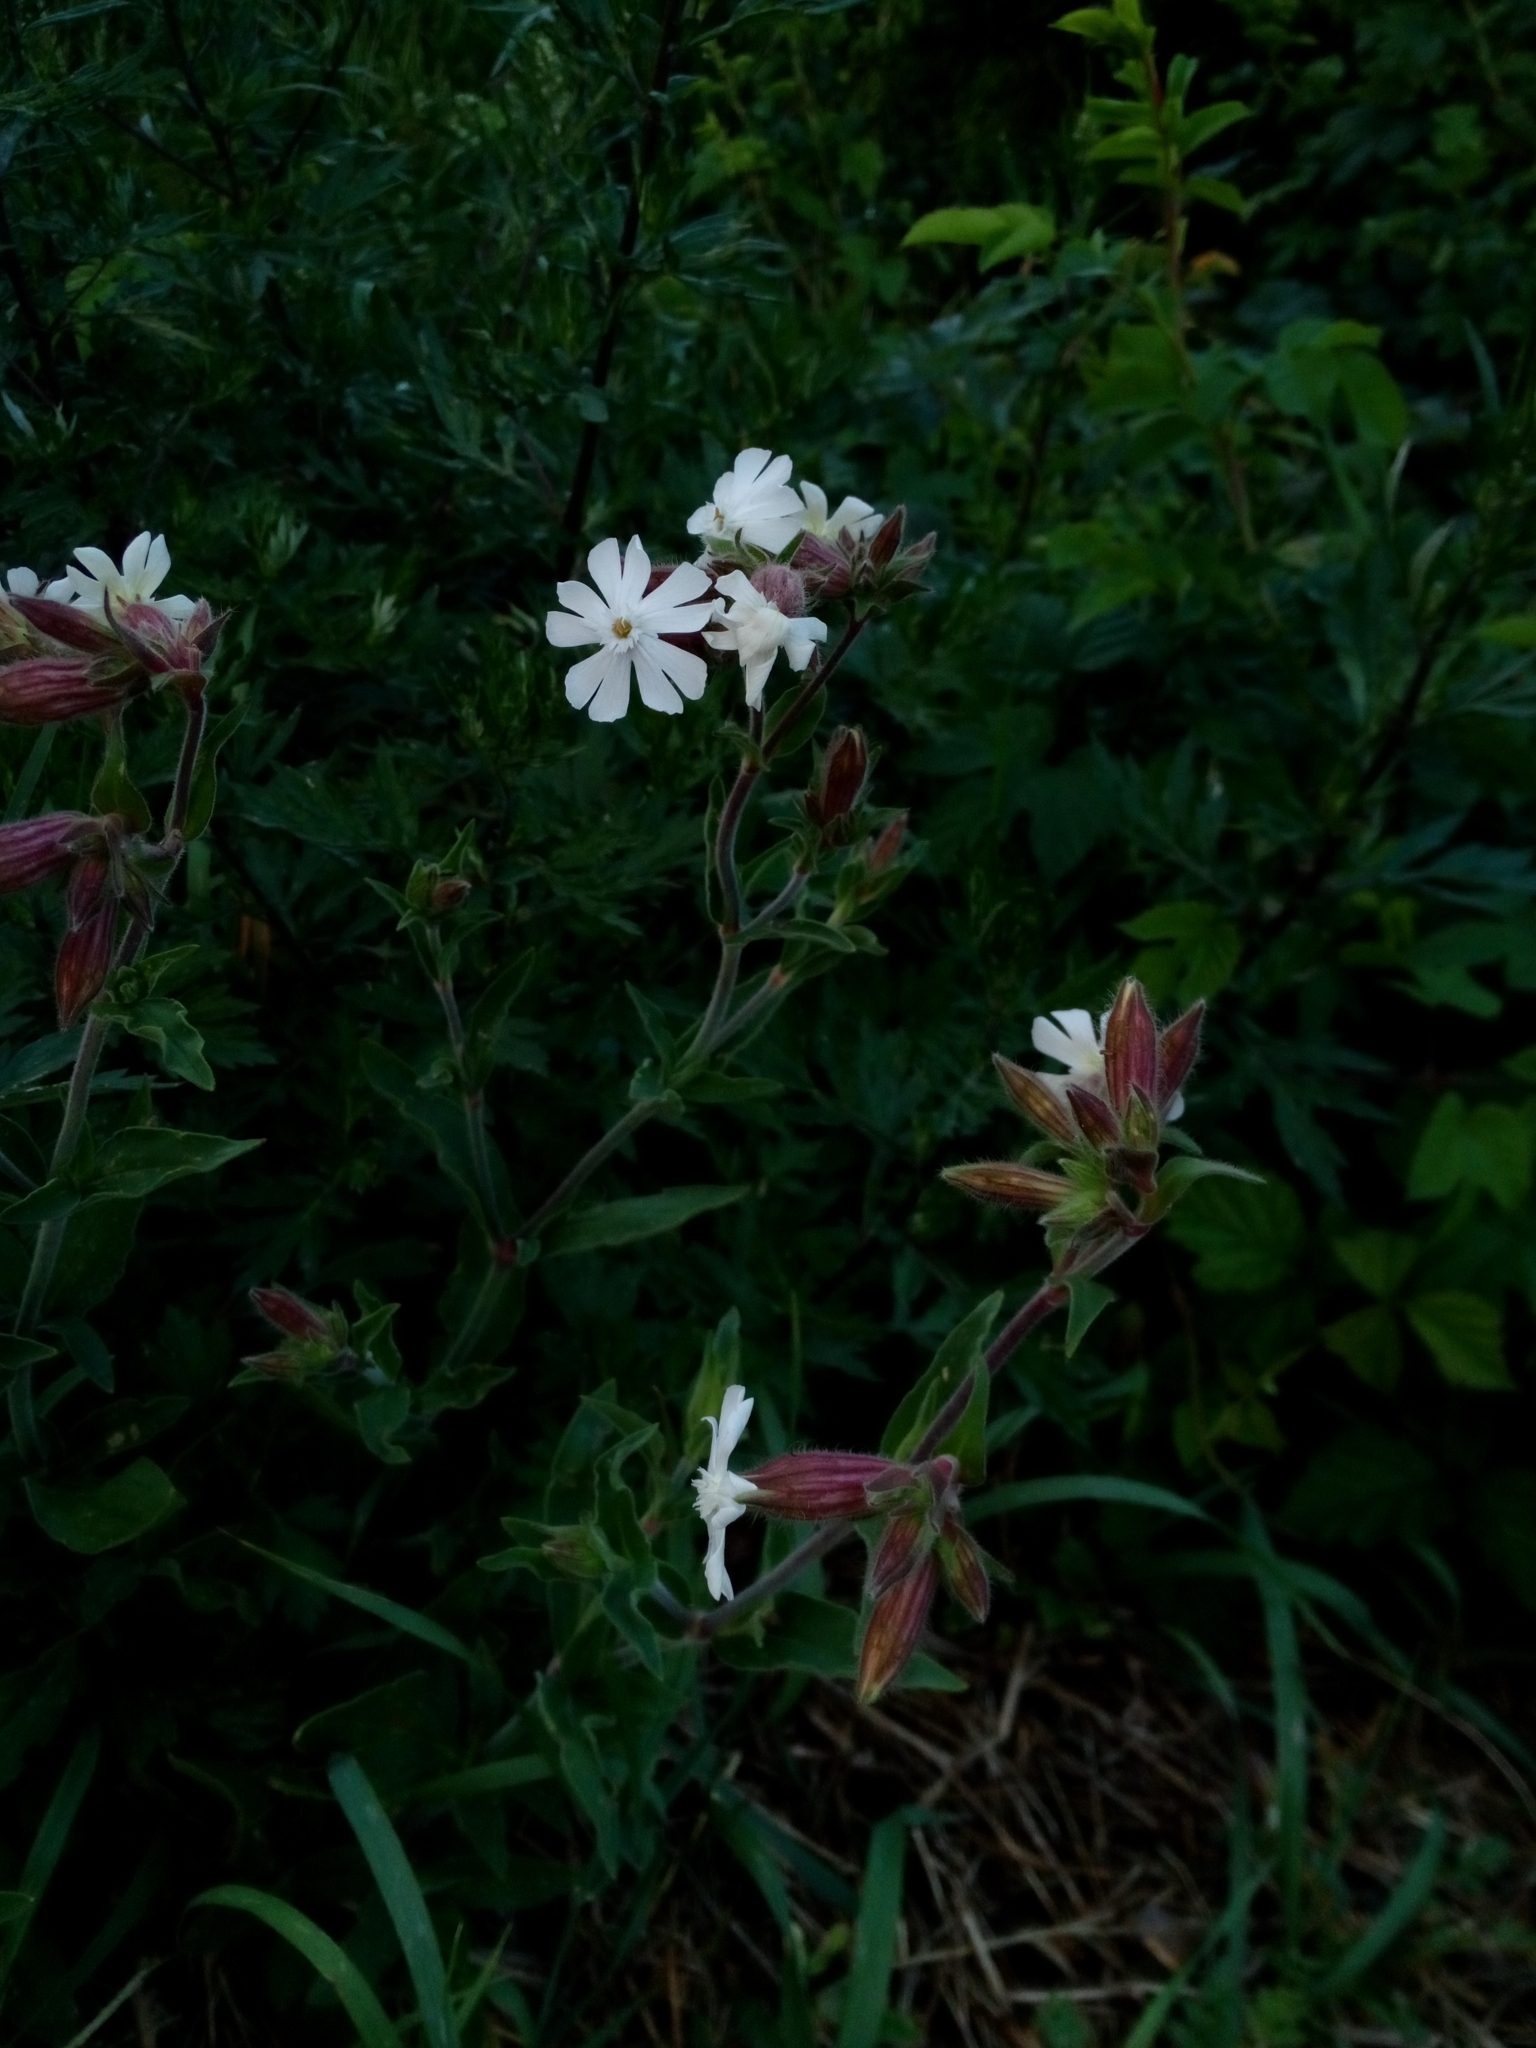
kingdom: Plantae
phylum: Tracheophyta
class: Magnoliopsida
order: Caryophyllales
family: Caryophyllaceae
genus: Silene
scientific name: Silene latifolia
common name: White campion
